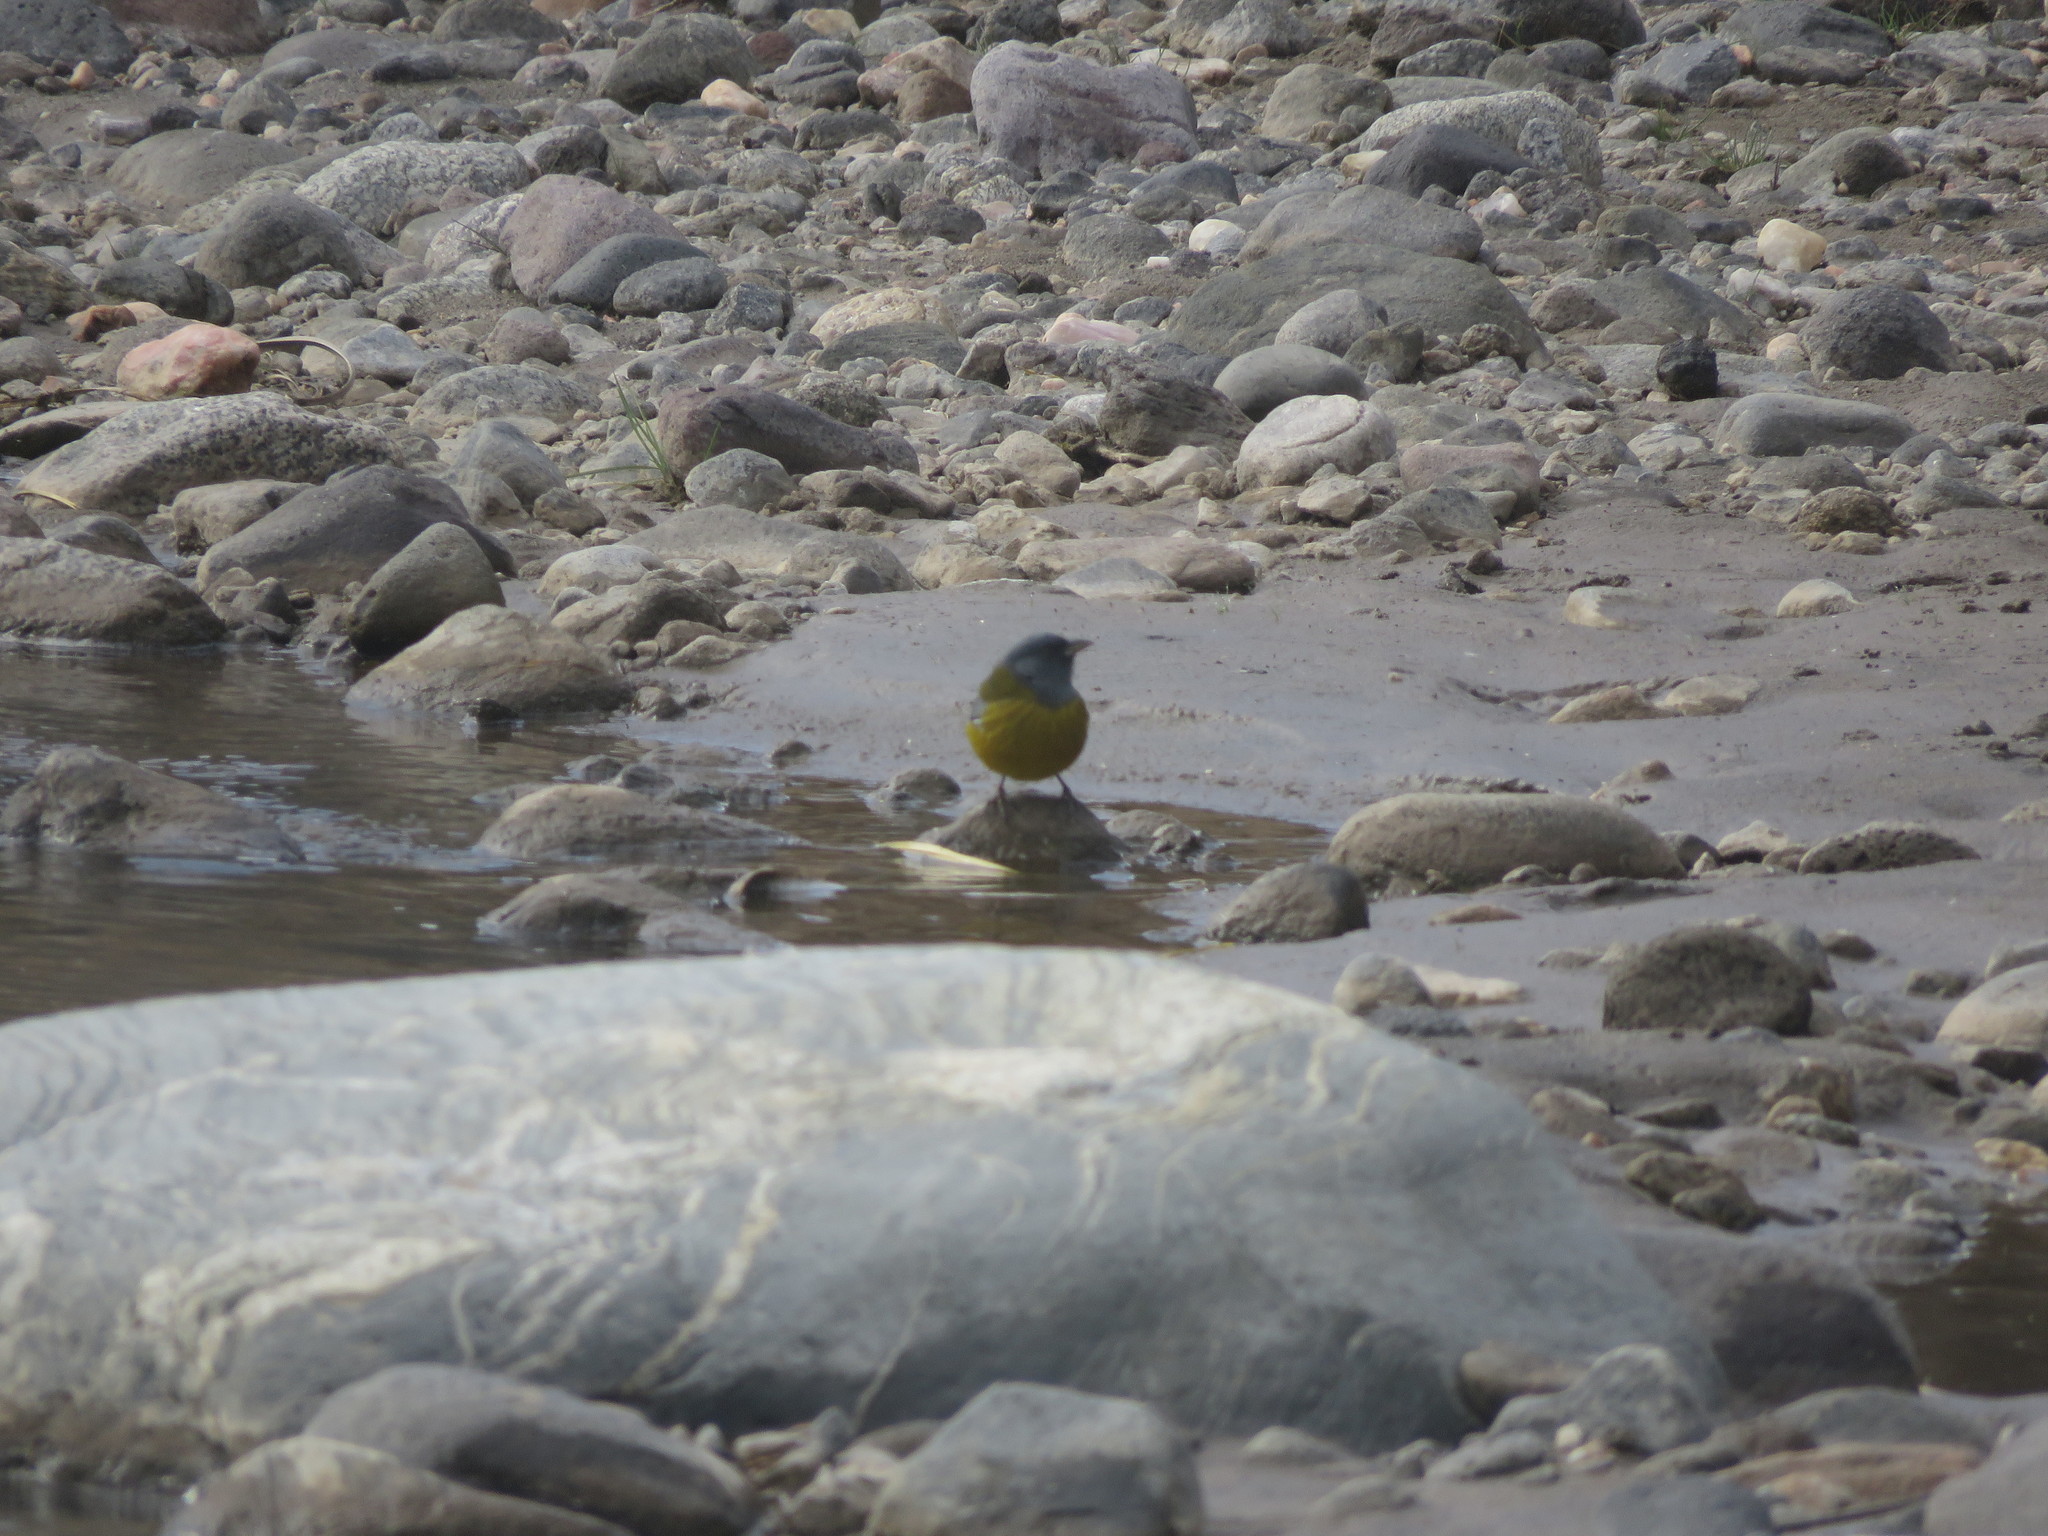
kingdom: Animalia
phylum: Chordata
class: Aves
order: Passeriformes
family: Thraupidae
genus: Phrygilus
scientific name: Phrygilus gayi
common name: Grey-hooded sierra finch
